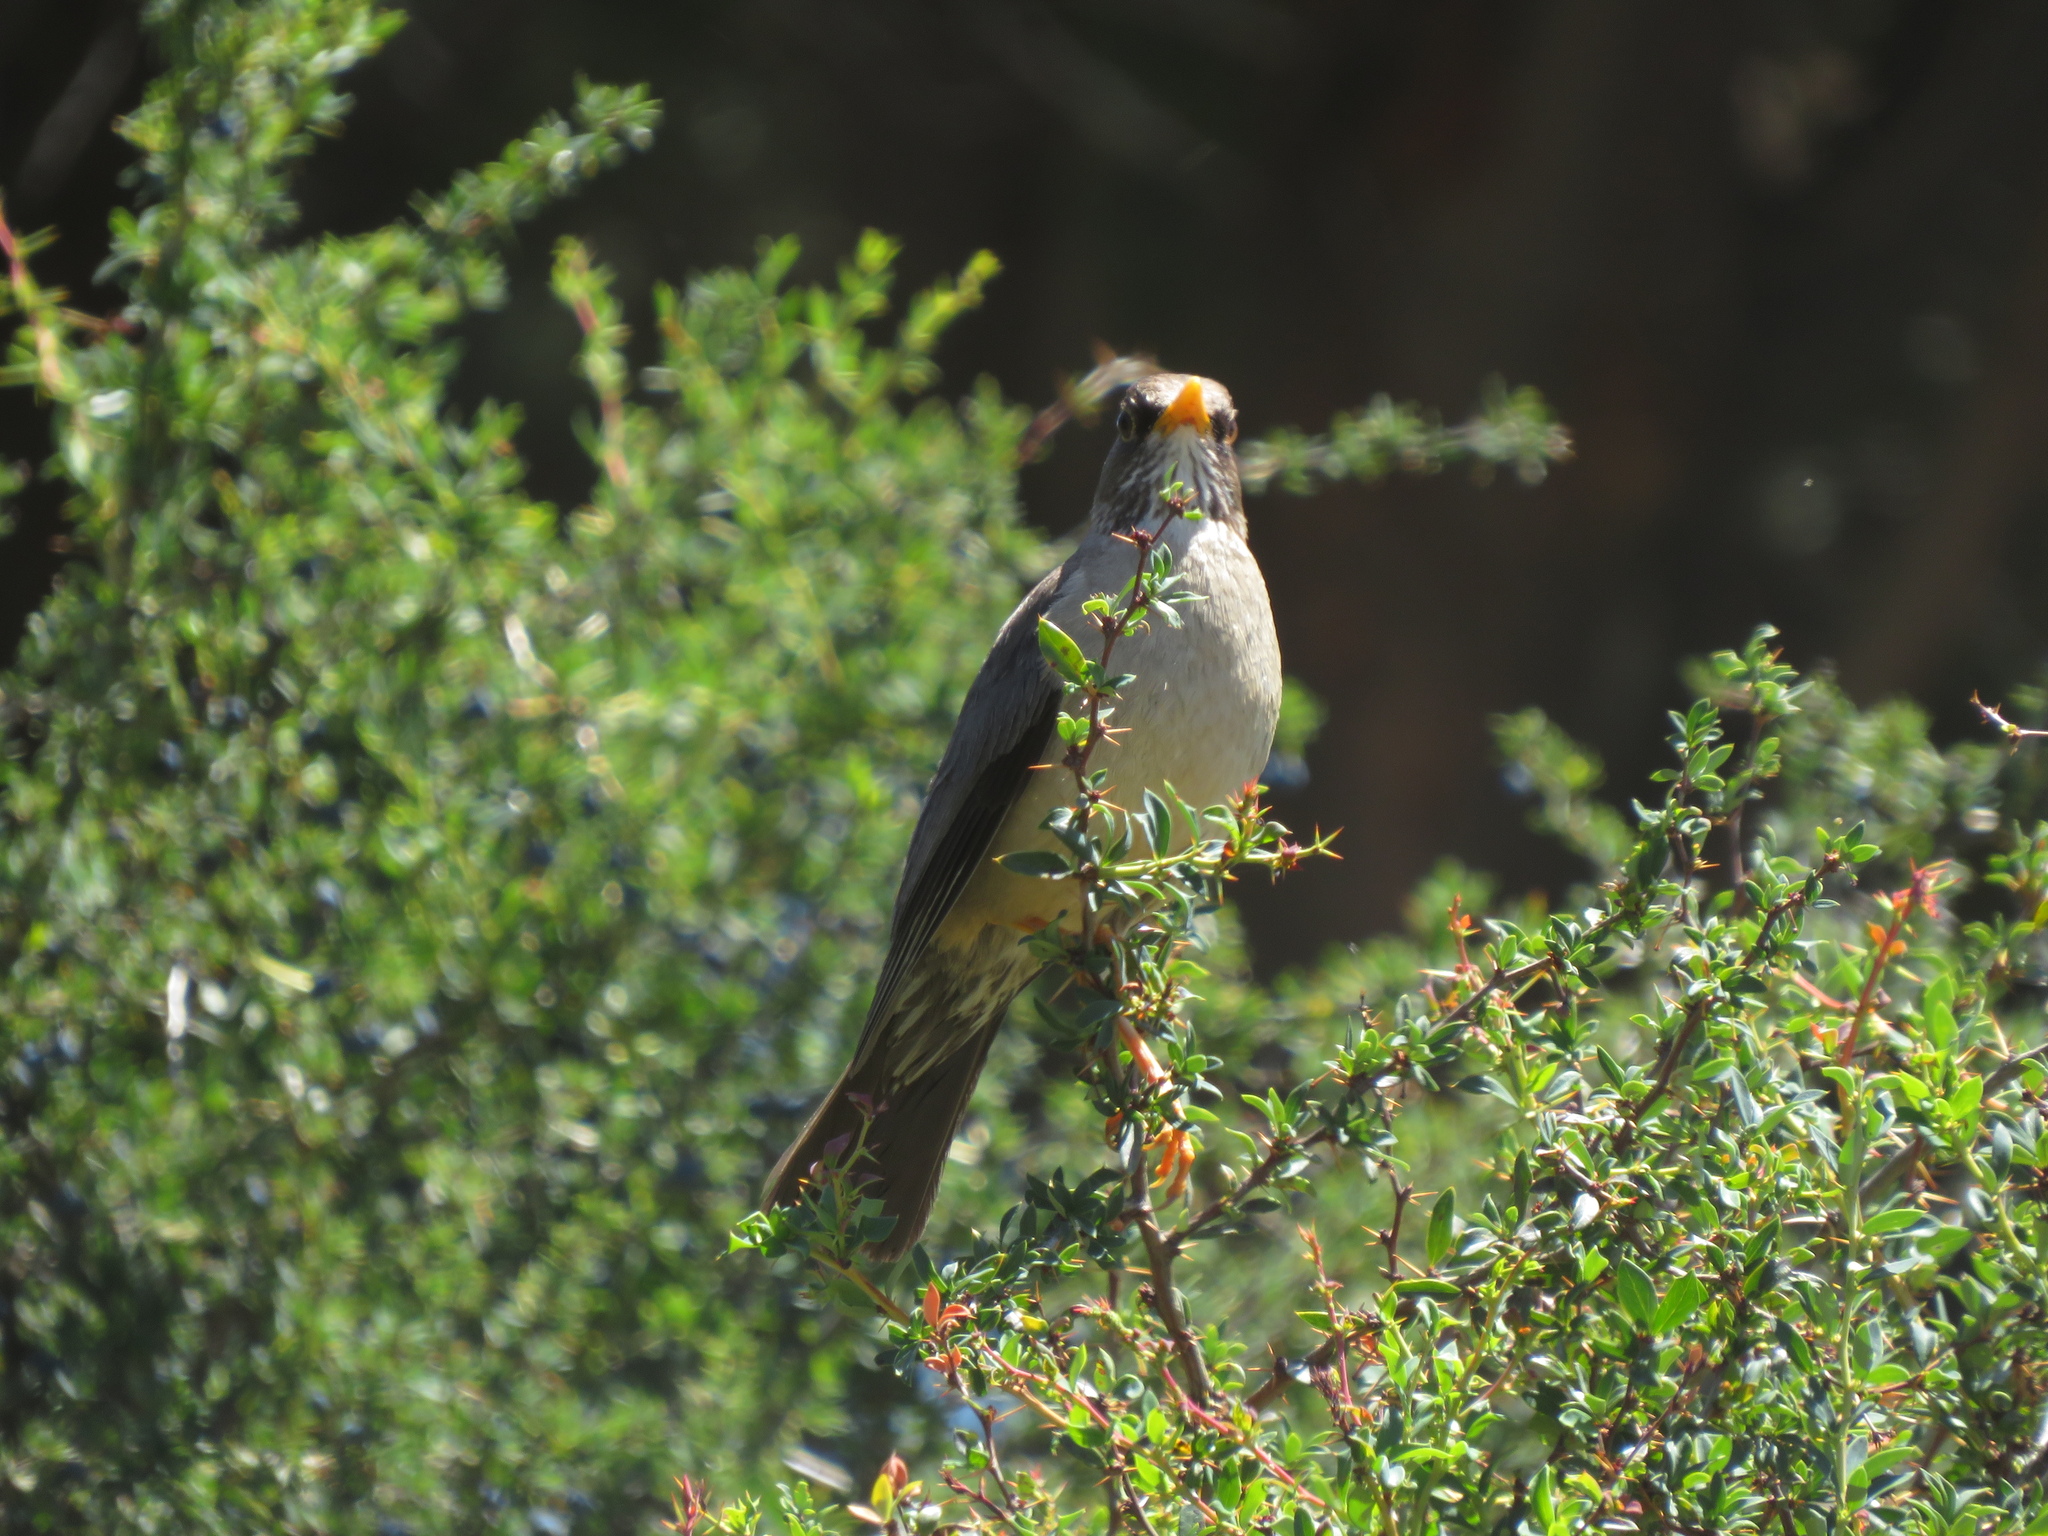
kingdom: Animalia
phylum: Chordata
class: Aves
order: Passeriformes
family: Turdidae
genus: Turdus
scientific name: Turdus falcklandii
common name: Austral thrush
